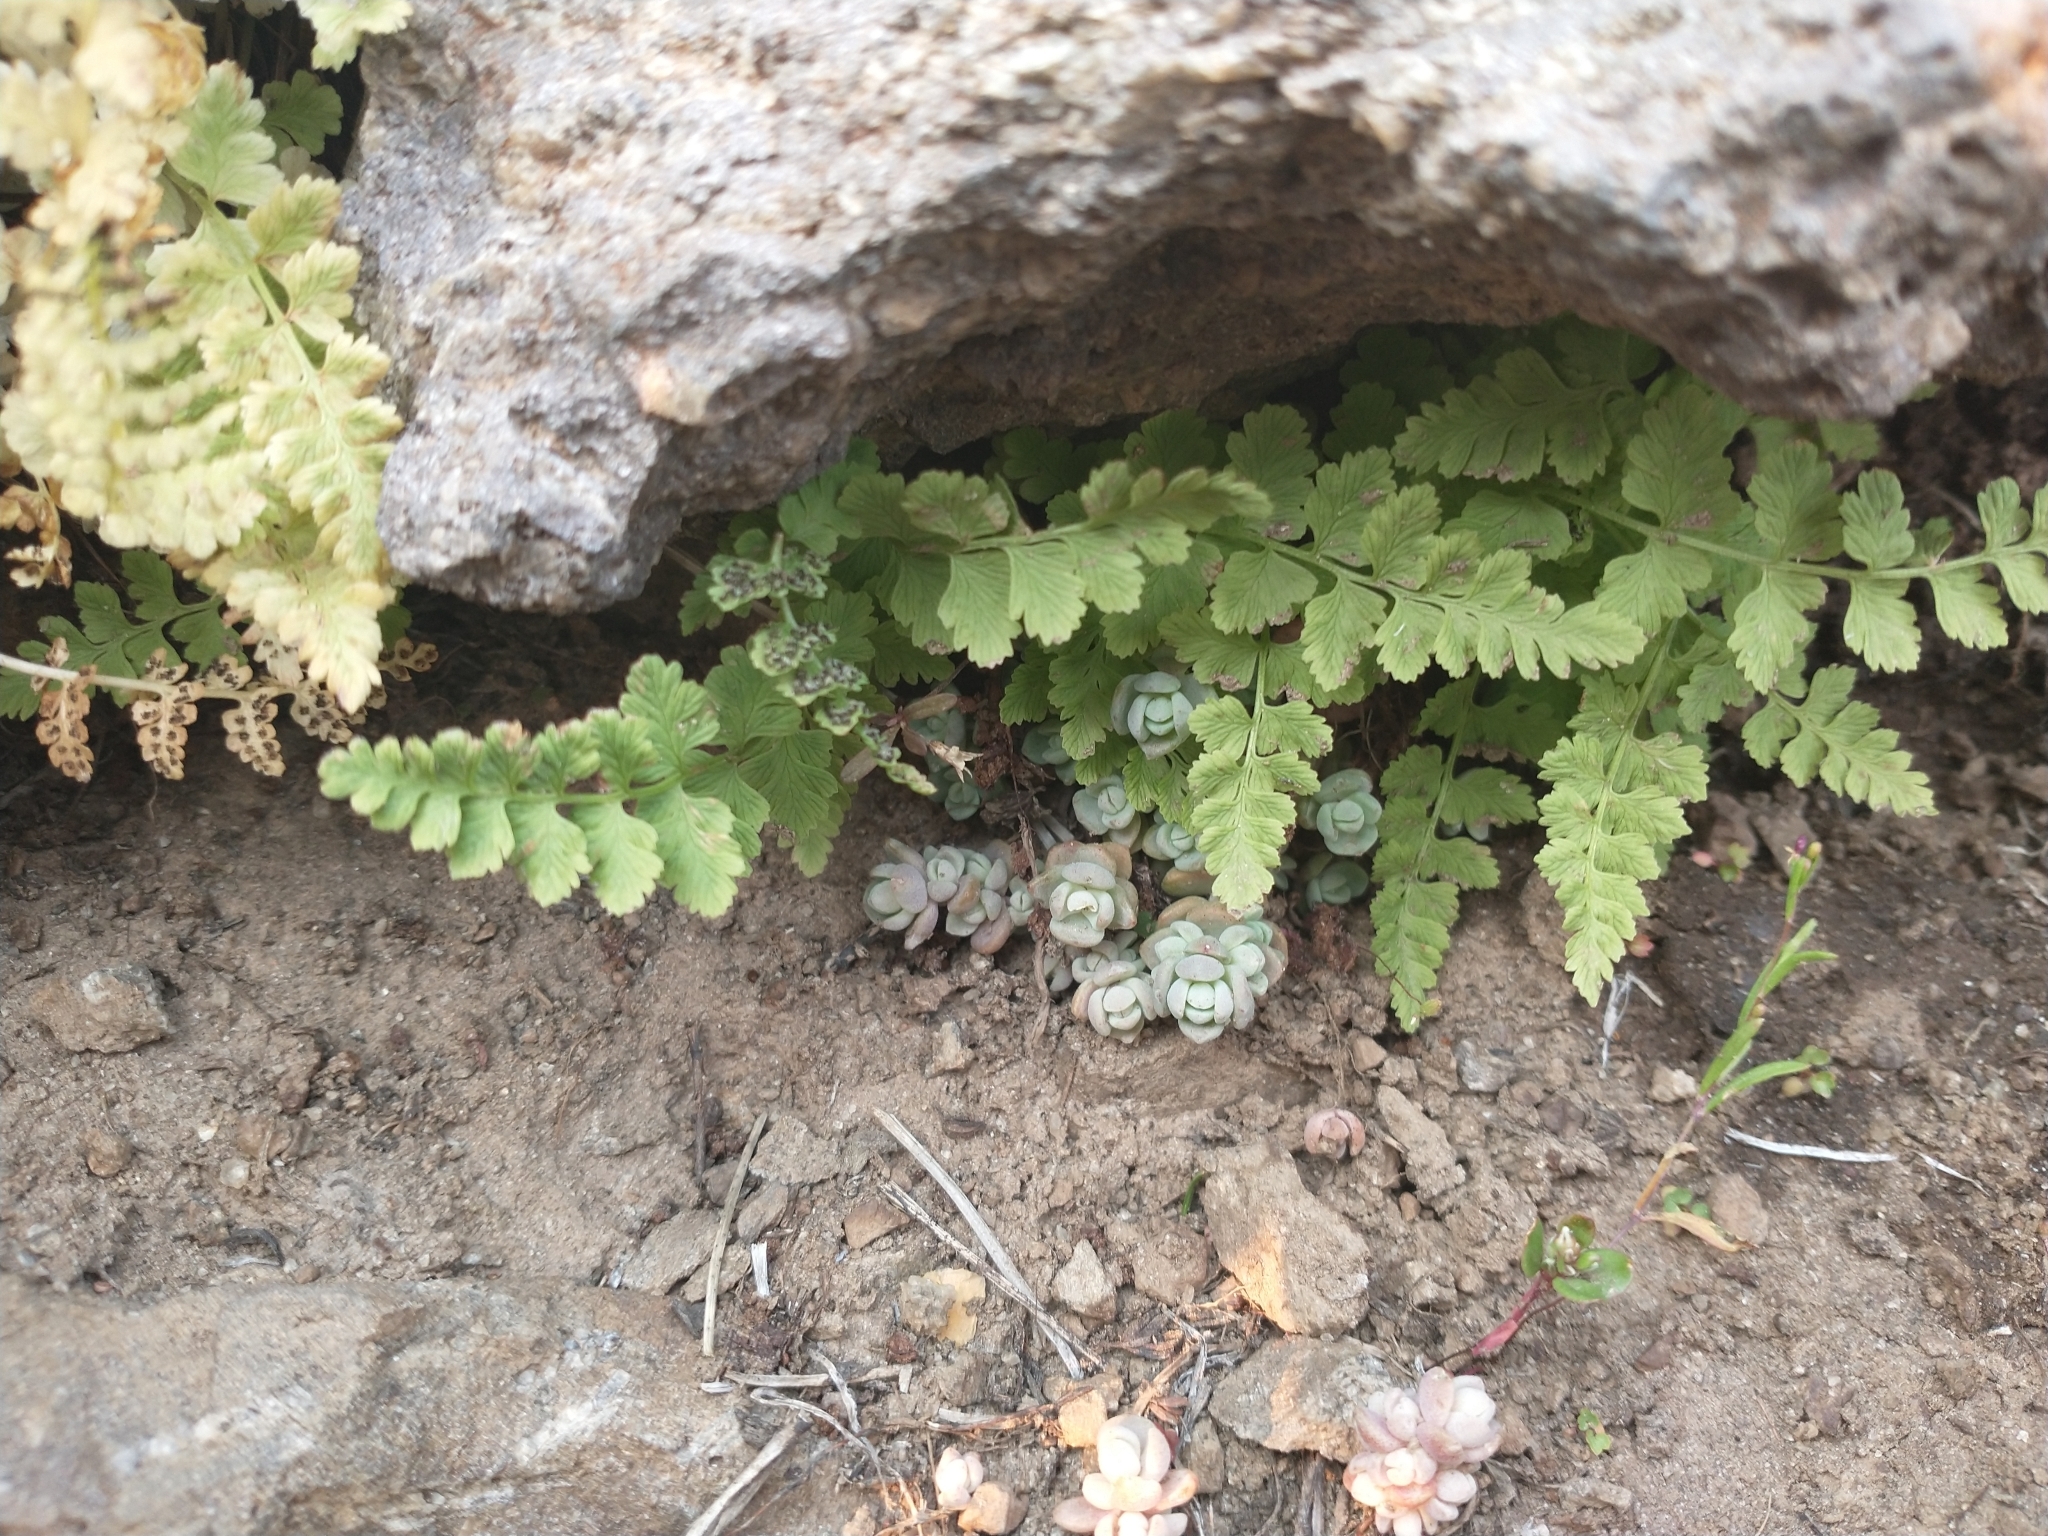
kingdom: Plantae
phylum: Tracheophyta
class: Magnoliopsida
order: Saxifragales
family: Crassulaceae
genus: Sedum
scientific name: Sedum debile
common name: Weak-stem stonecrop
